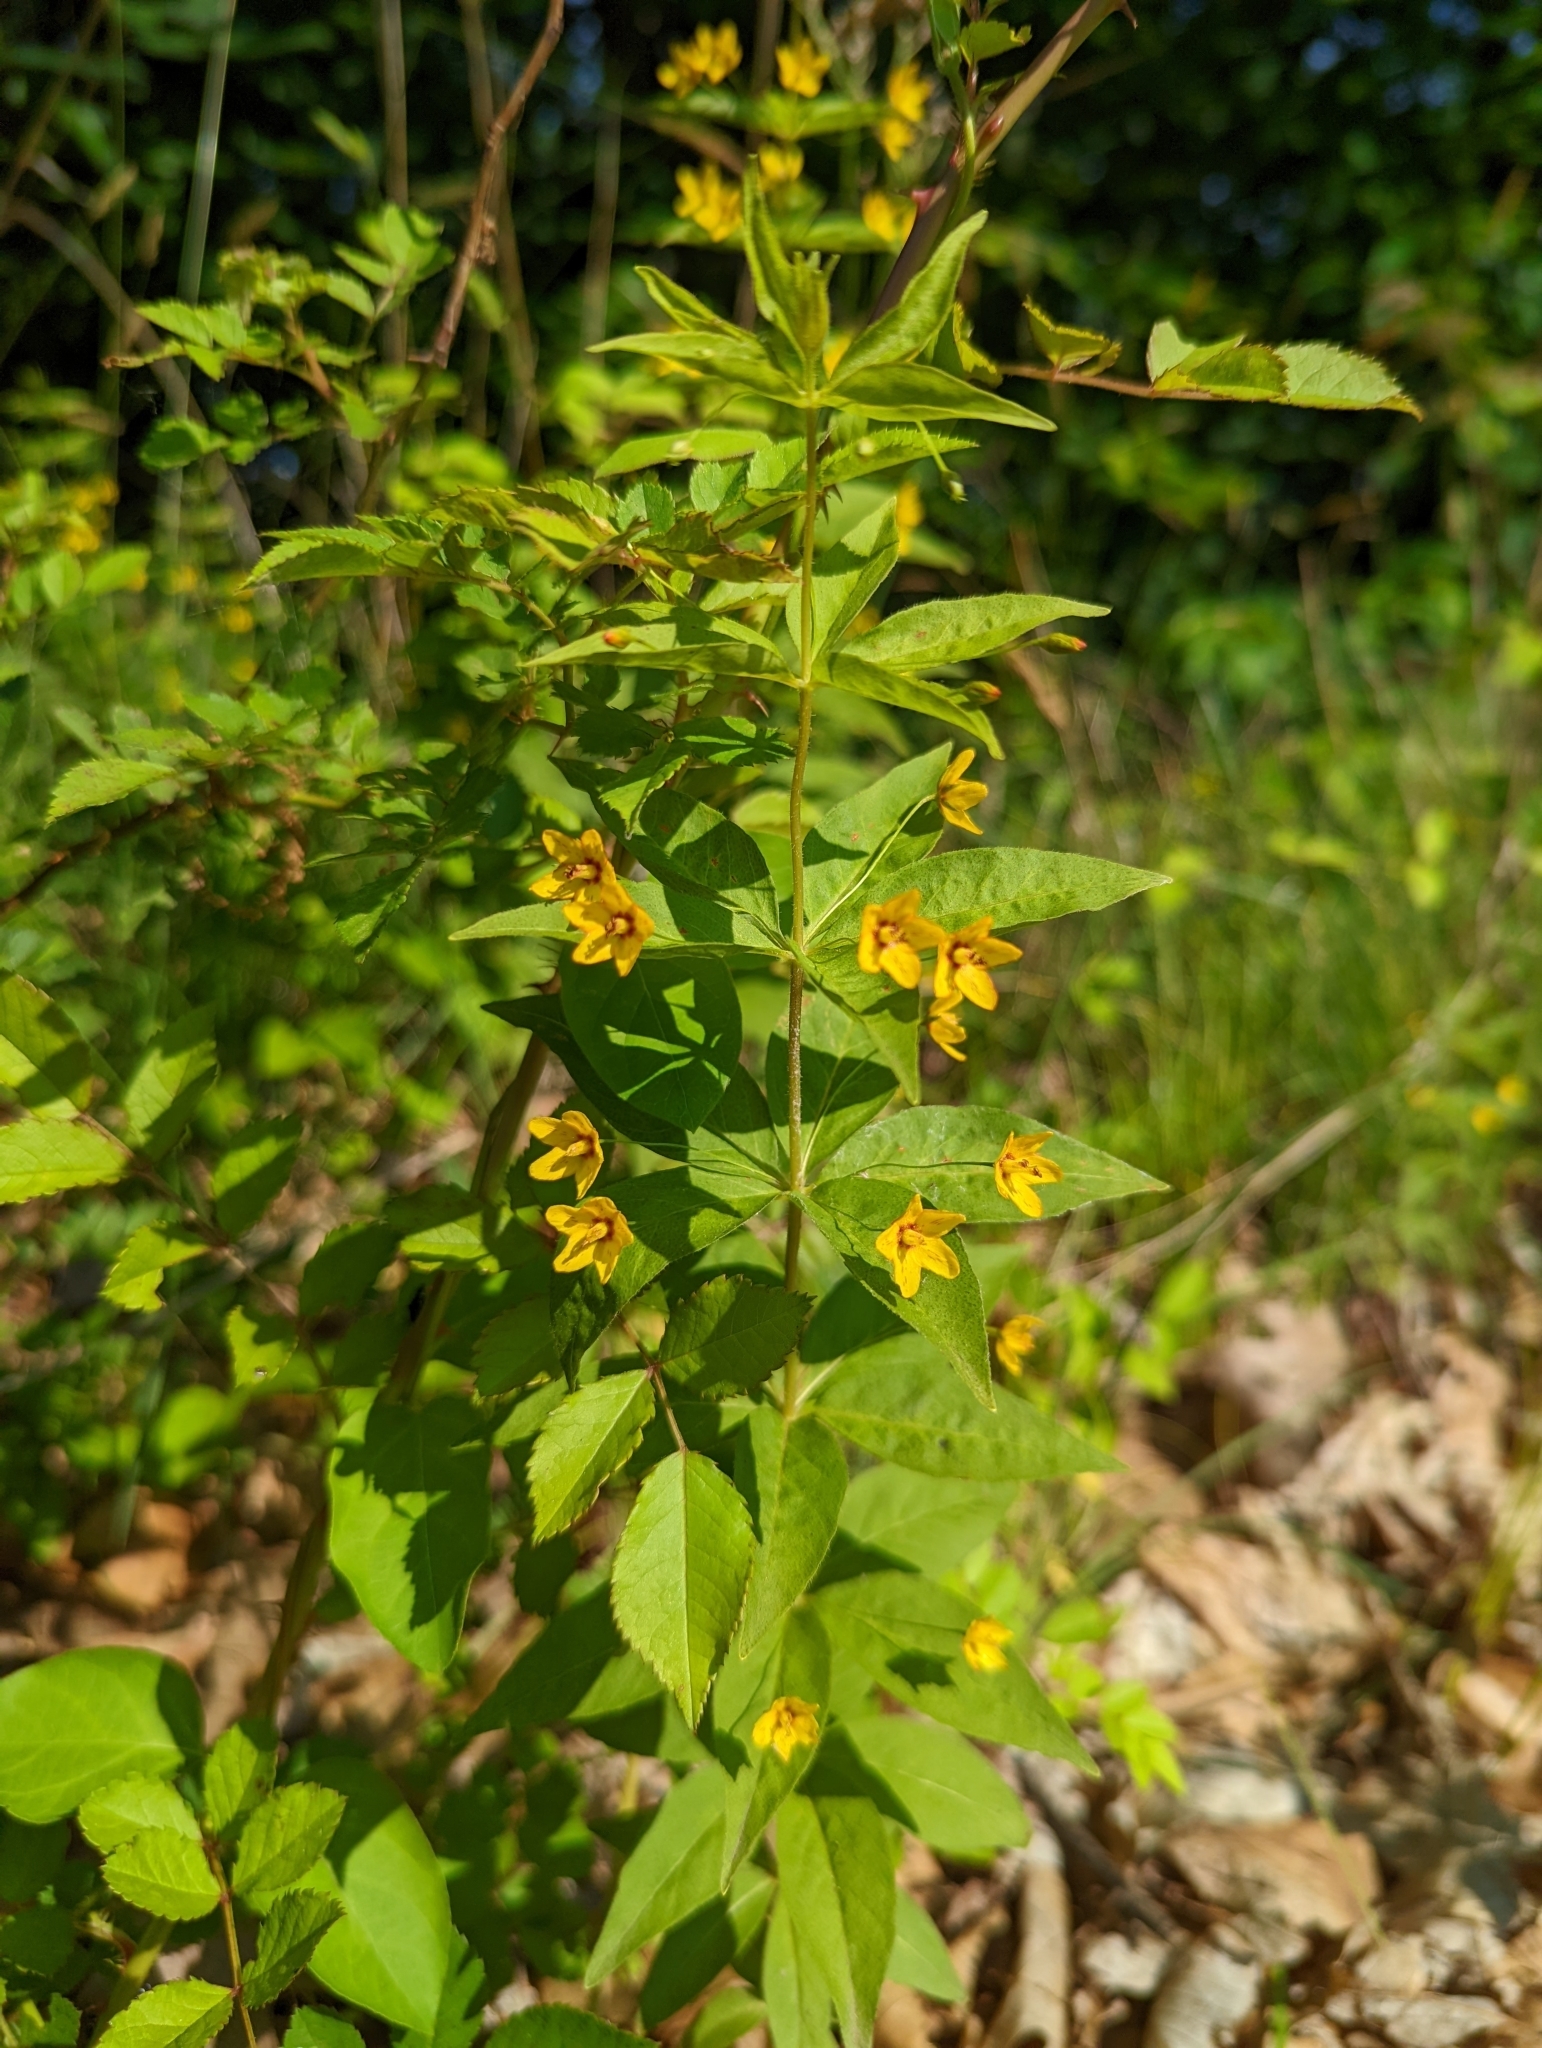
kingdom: Plantae
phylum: Tracheophyta
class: Magnoliopsida
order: Ericales
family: Primulaceae
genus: Lysimachia
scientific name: Lysimachia quadrifolia
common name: Whorled loosestrife
